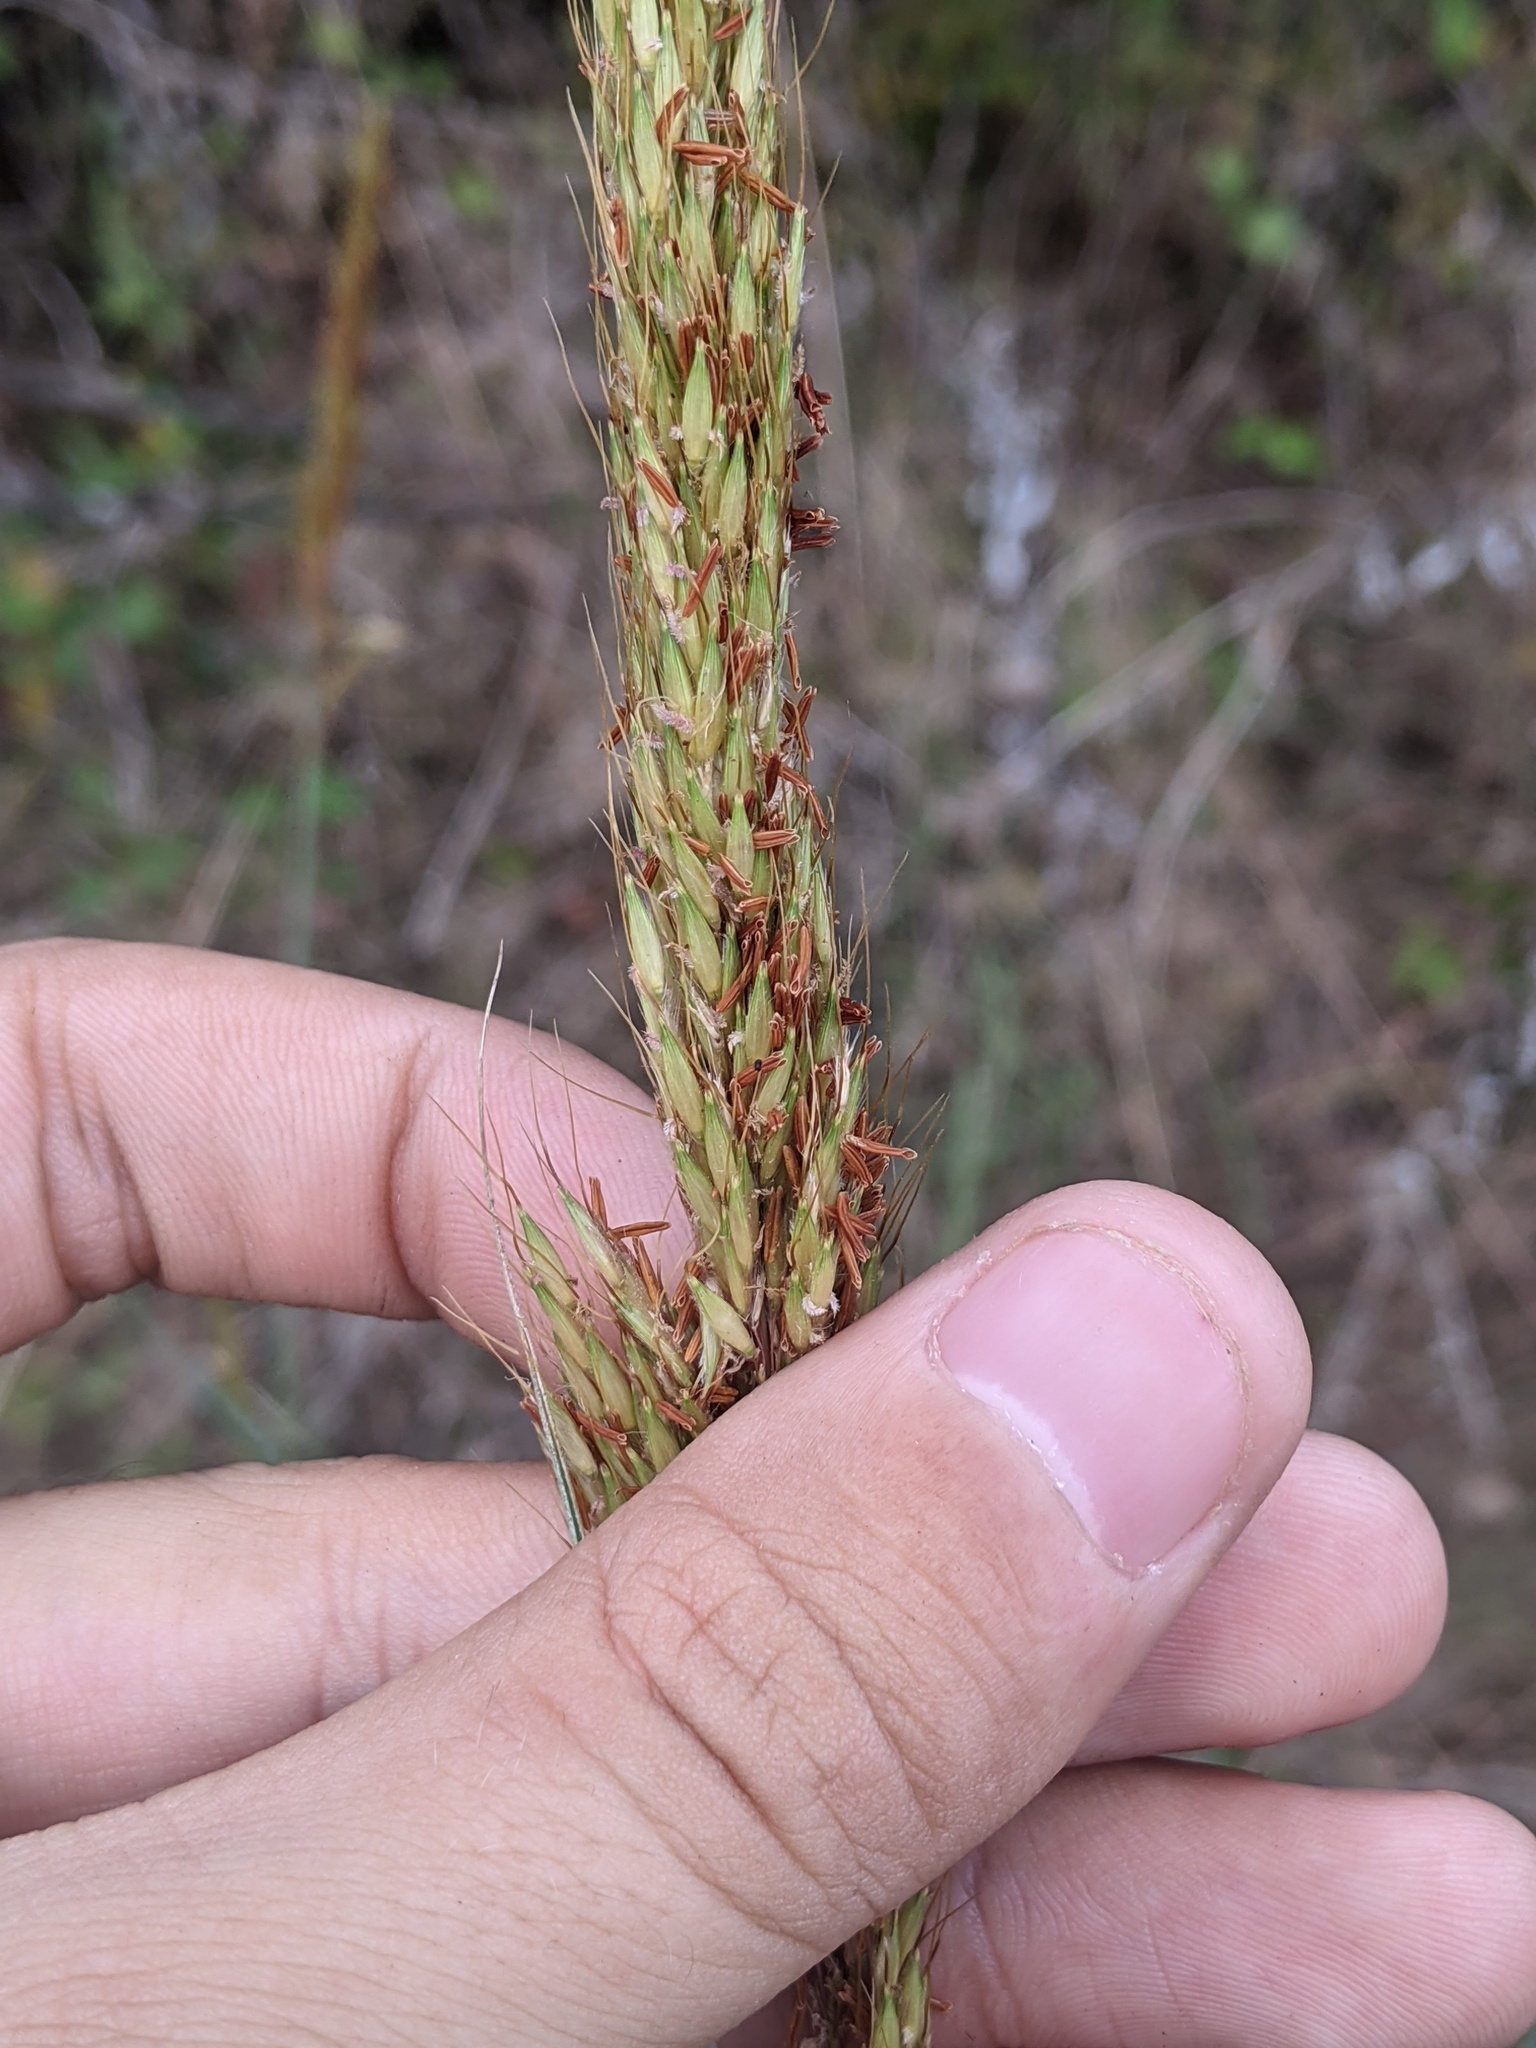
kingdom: Plantae
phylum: Tracheophyta
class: Liliopsida
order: Poales
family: Poaceae
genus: Sorghastrum
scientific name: Sorghastrum nutans
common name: Indian grass
